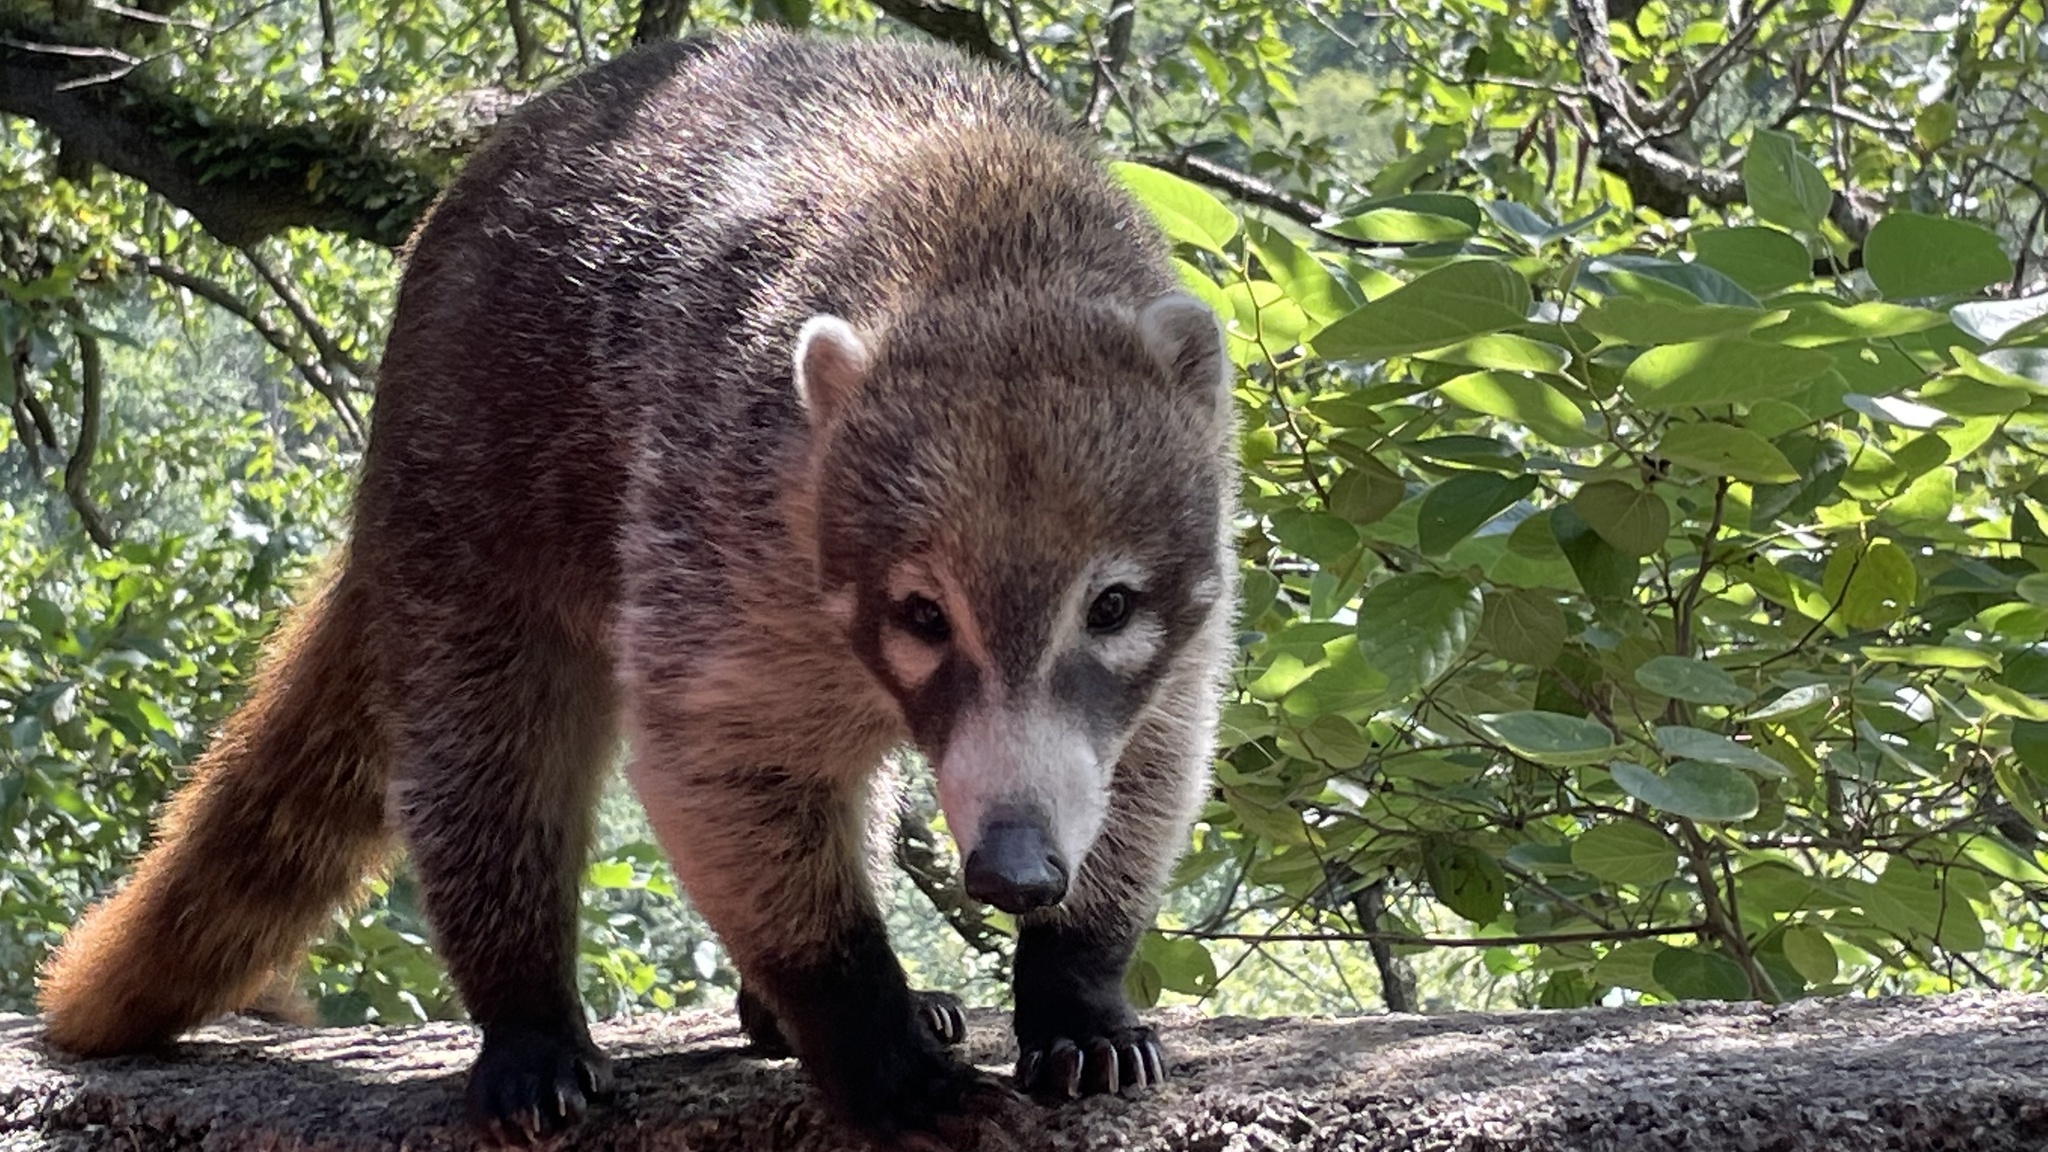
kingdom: Animalia
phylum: Chordata
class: Mammalia
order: Carnivora
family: Procyonidae
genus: Nasua
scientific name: Nasua narica
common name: White-nosed coati
